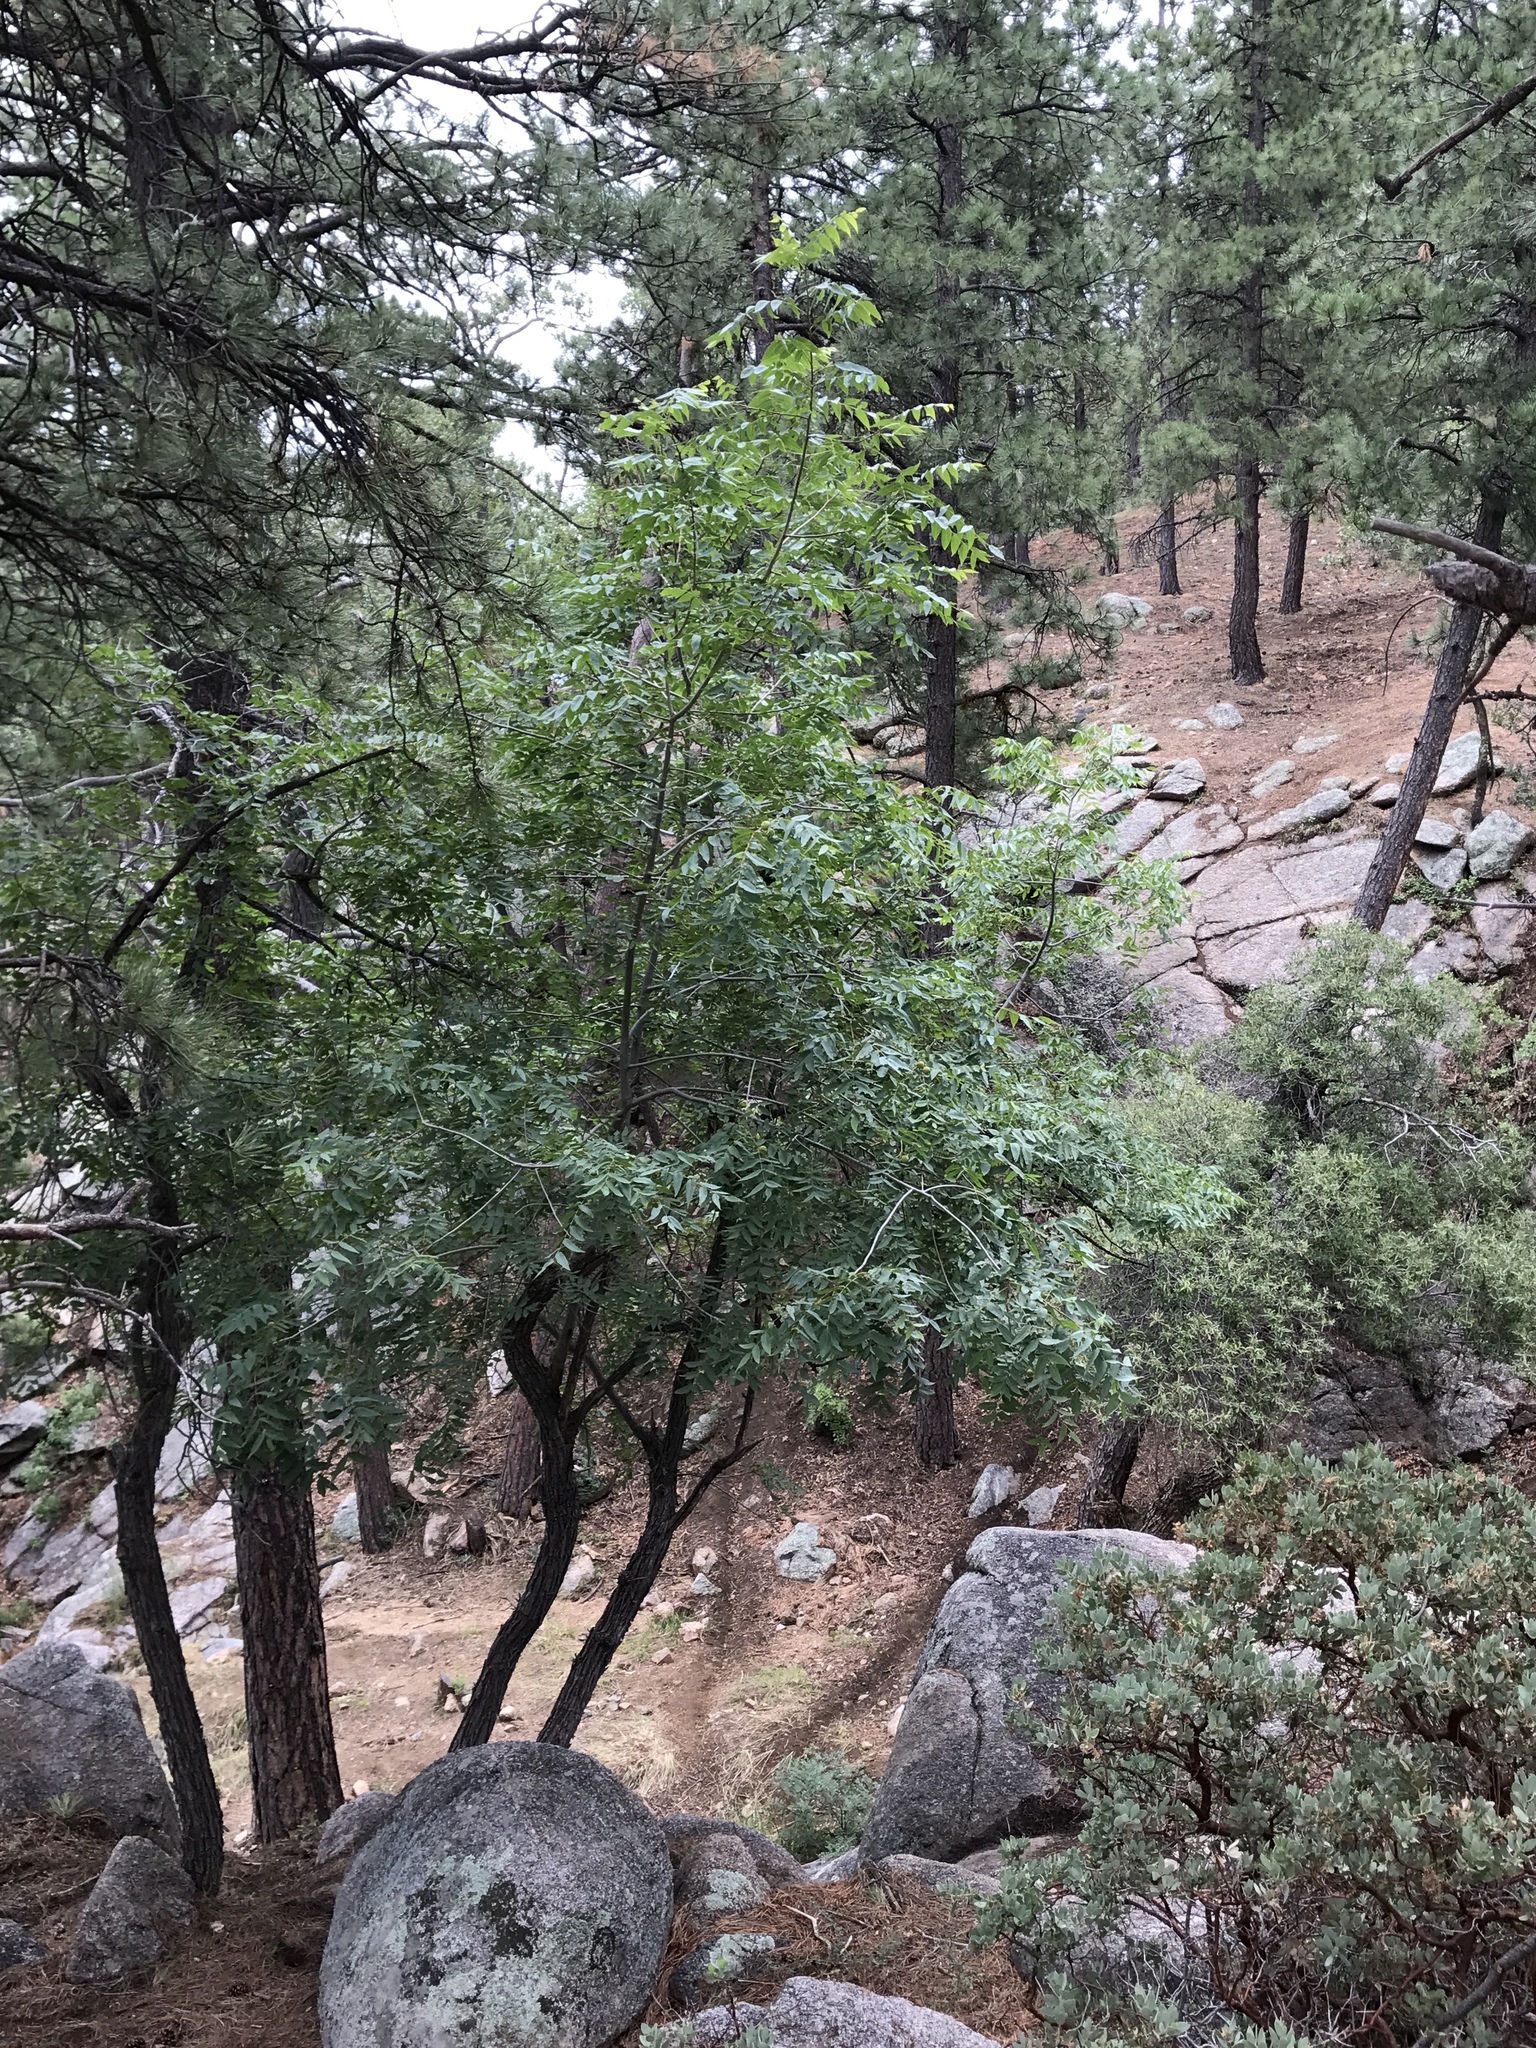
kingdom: Plantae
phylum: Tracheophyta
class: Magnoliopsida
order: Fagales
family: Juglandaceae
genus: Juglans
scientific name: Juglans major
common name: Arizona walnut
